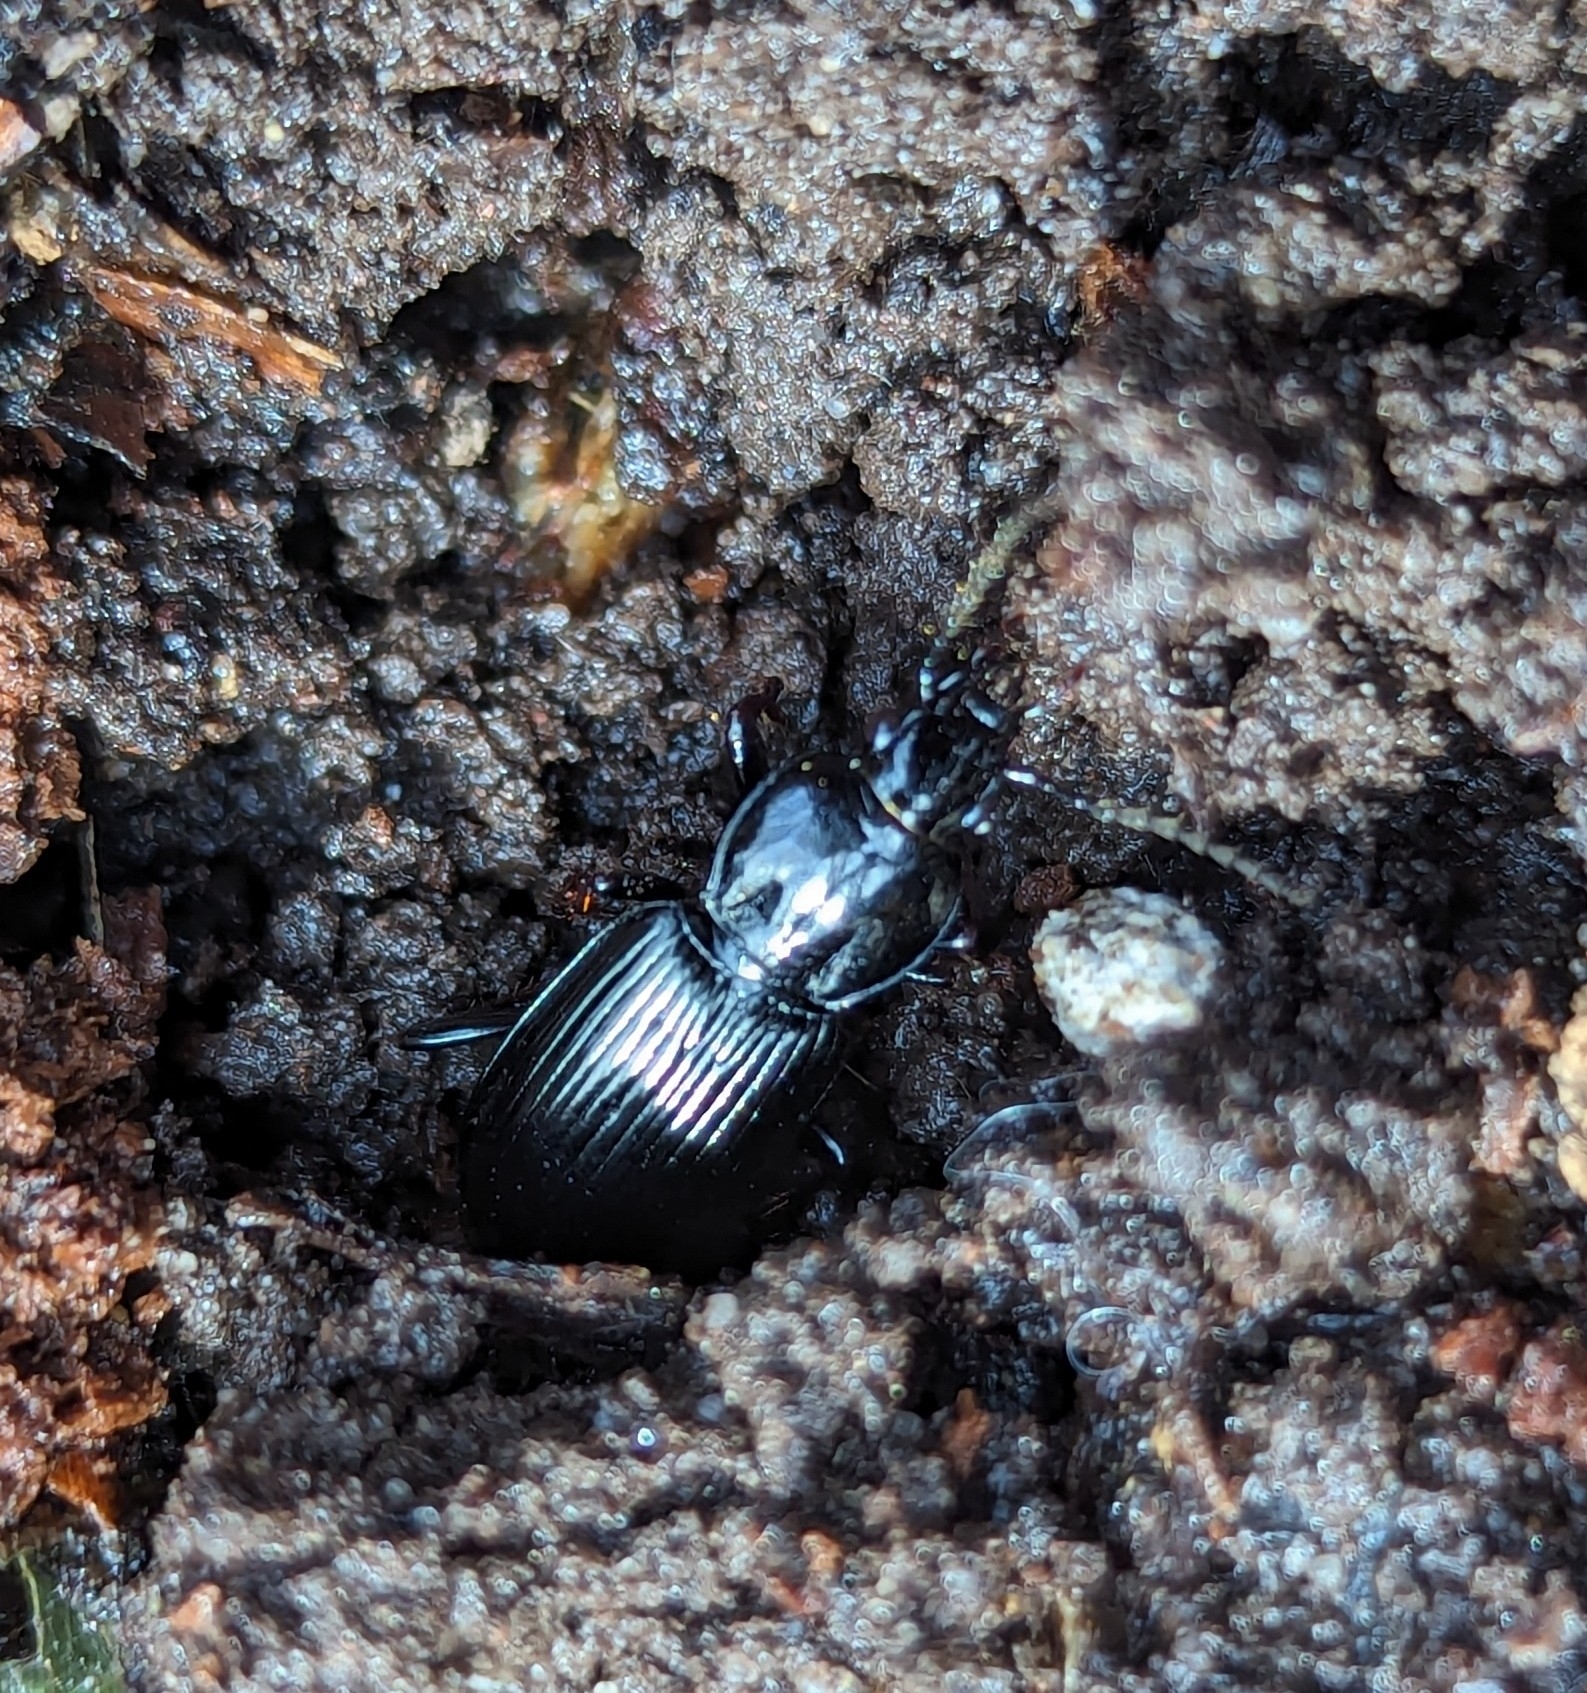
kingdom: Animalia
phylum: Arthropoda
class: Insecta
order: Coleoptera
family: Carabidae
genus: Pterostichus
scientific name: Pterostichus mutus
